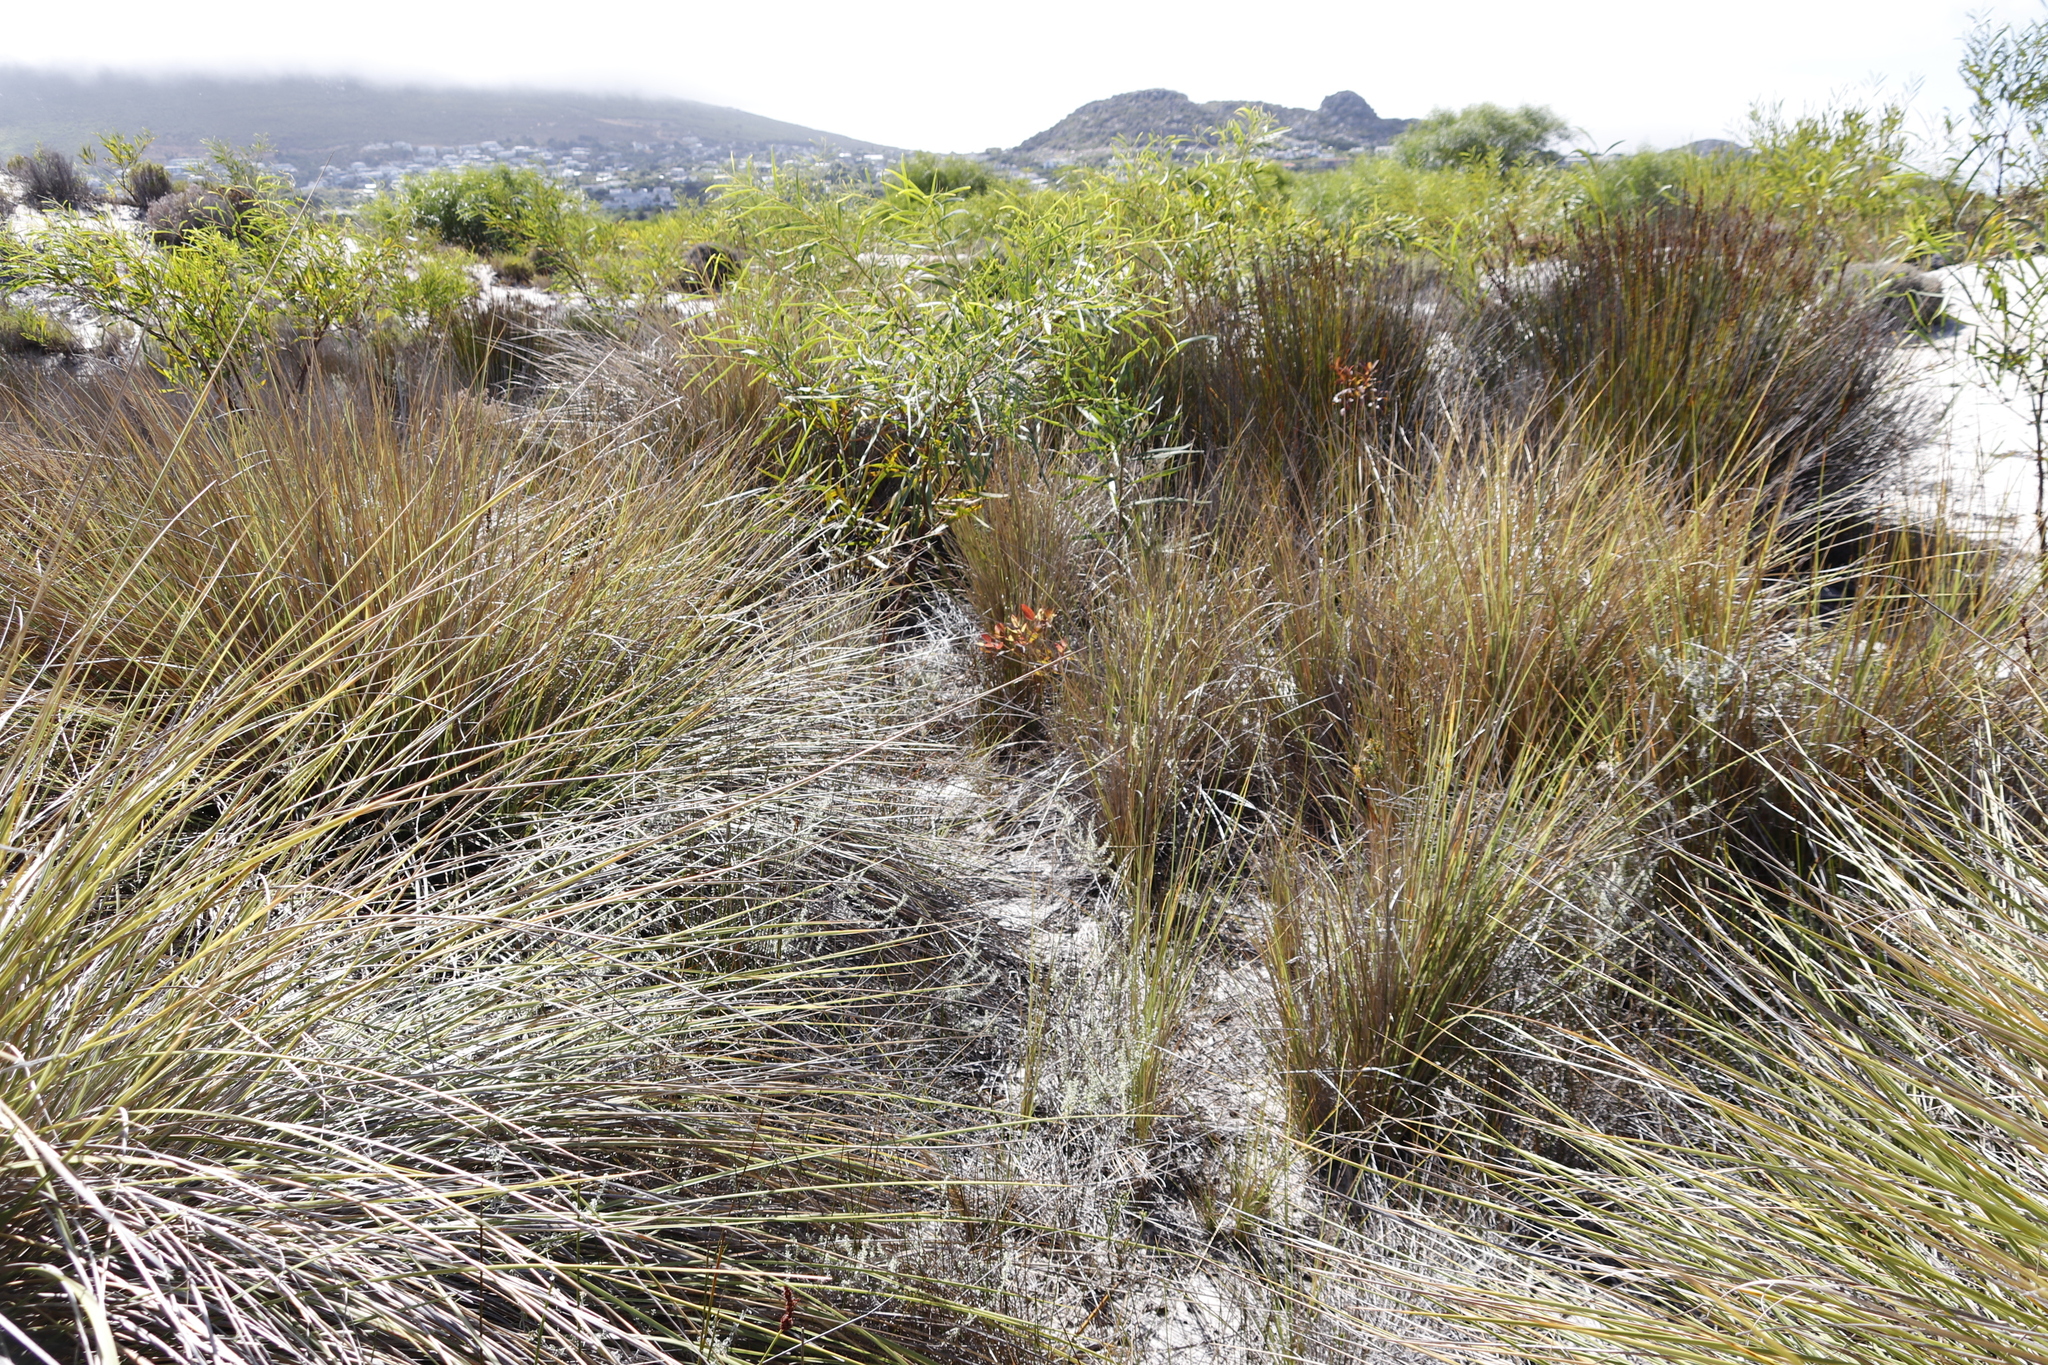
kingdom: Plantae
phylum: Tracheophyta
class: Magnoliopsida
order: Fabales
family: Fabaceae
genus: Acacia
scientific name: Acacia saligna
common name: Orange wattle
